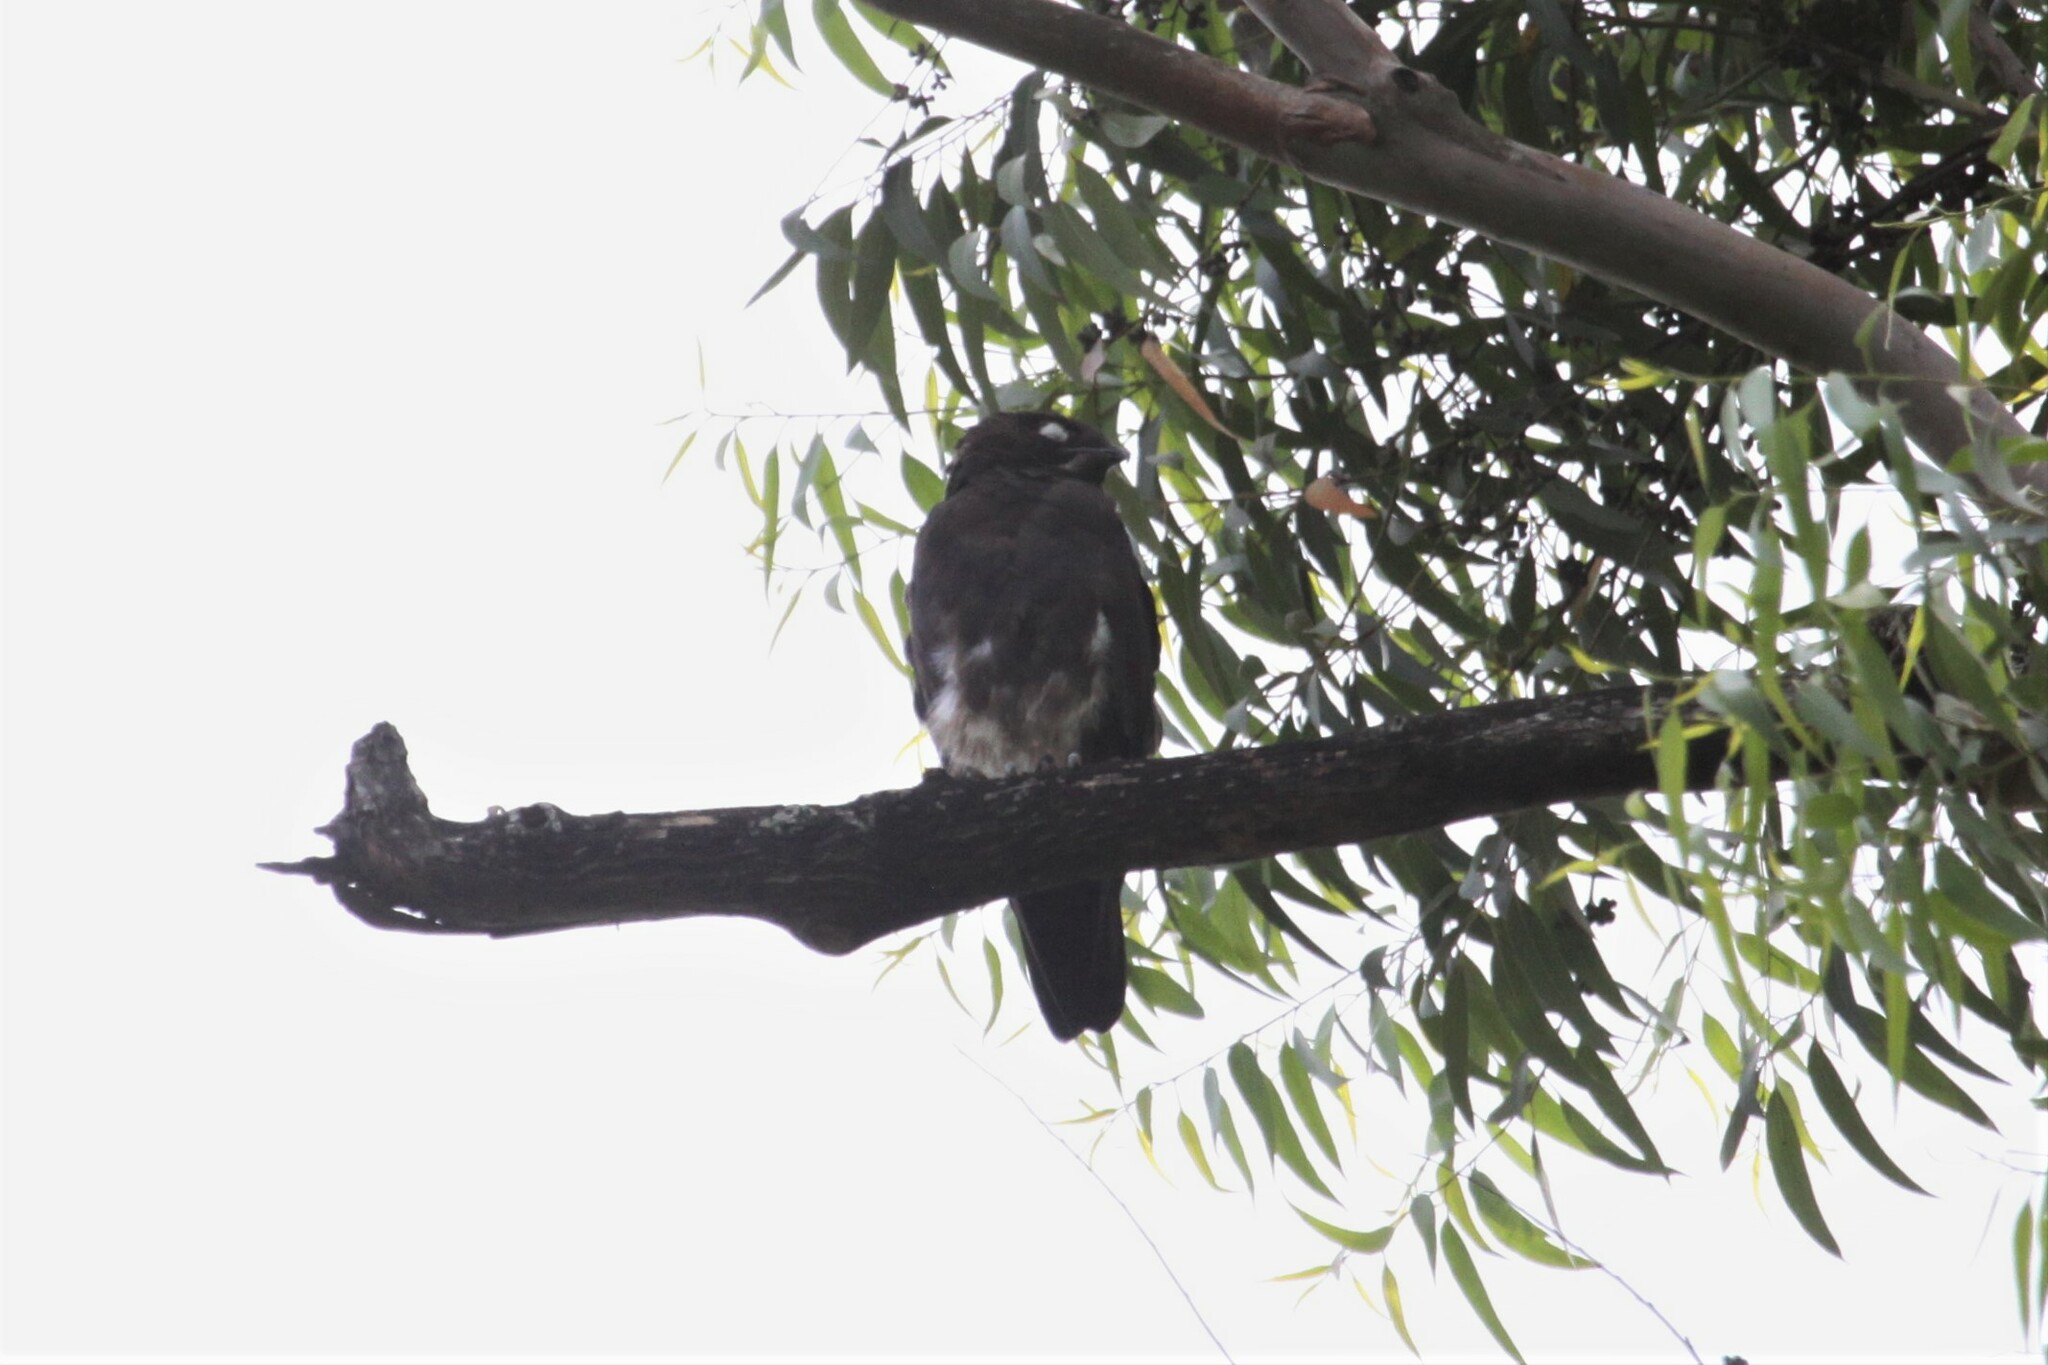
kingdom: Animalia
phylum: Chordata
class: Aves
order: Accipitriformes
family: Accipitridae
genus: Macheiramphus
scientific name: Macheiramphus alcinus
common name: Bat hawk
